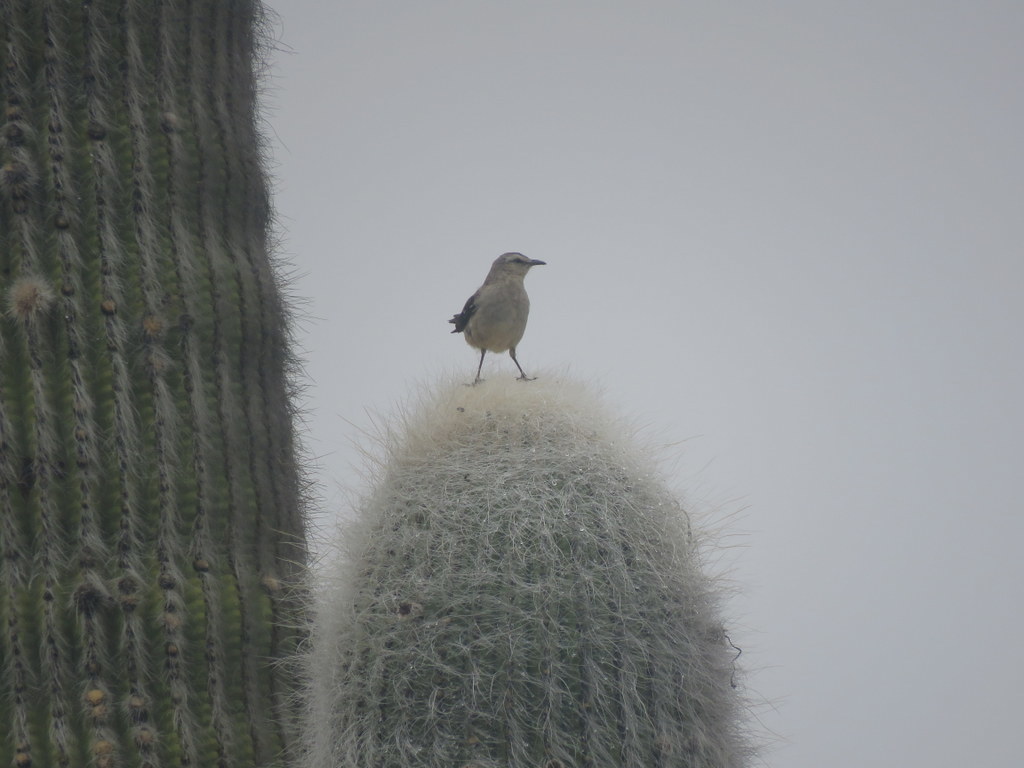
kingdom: Animalia
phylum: Chordata
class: Aves
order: Passeriformes
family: Mimidae
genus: Mimus
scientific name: Mimus patagonicus
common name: Patagonian mockingbird
